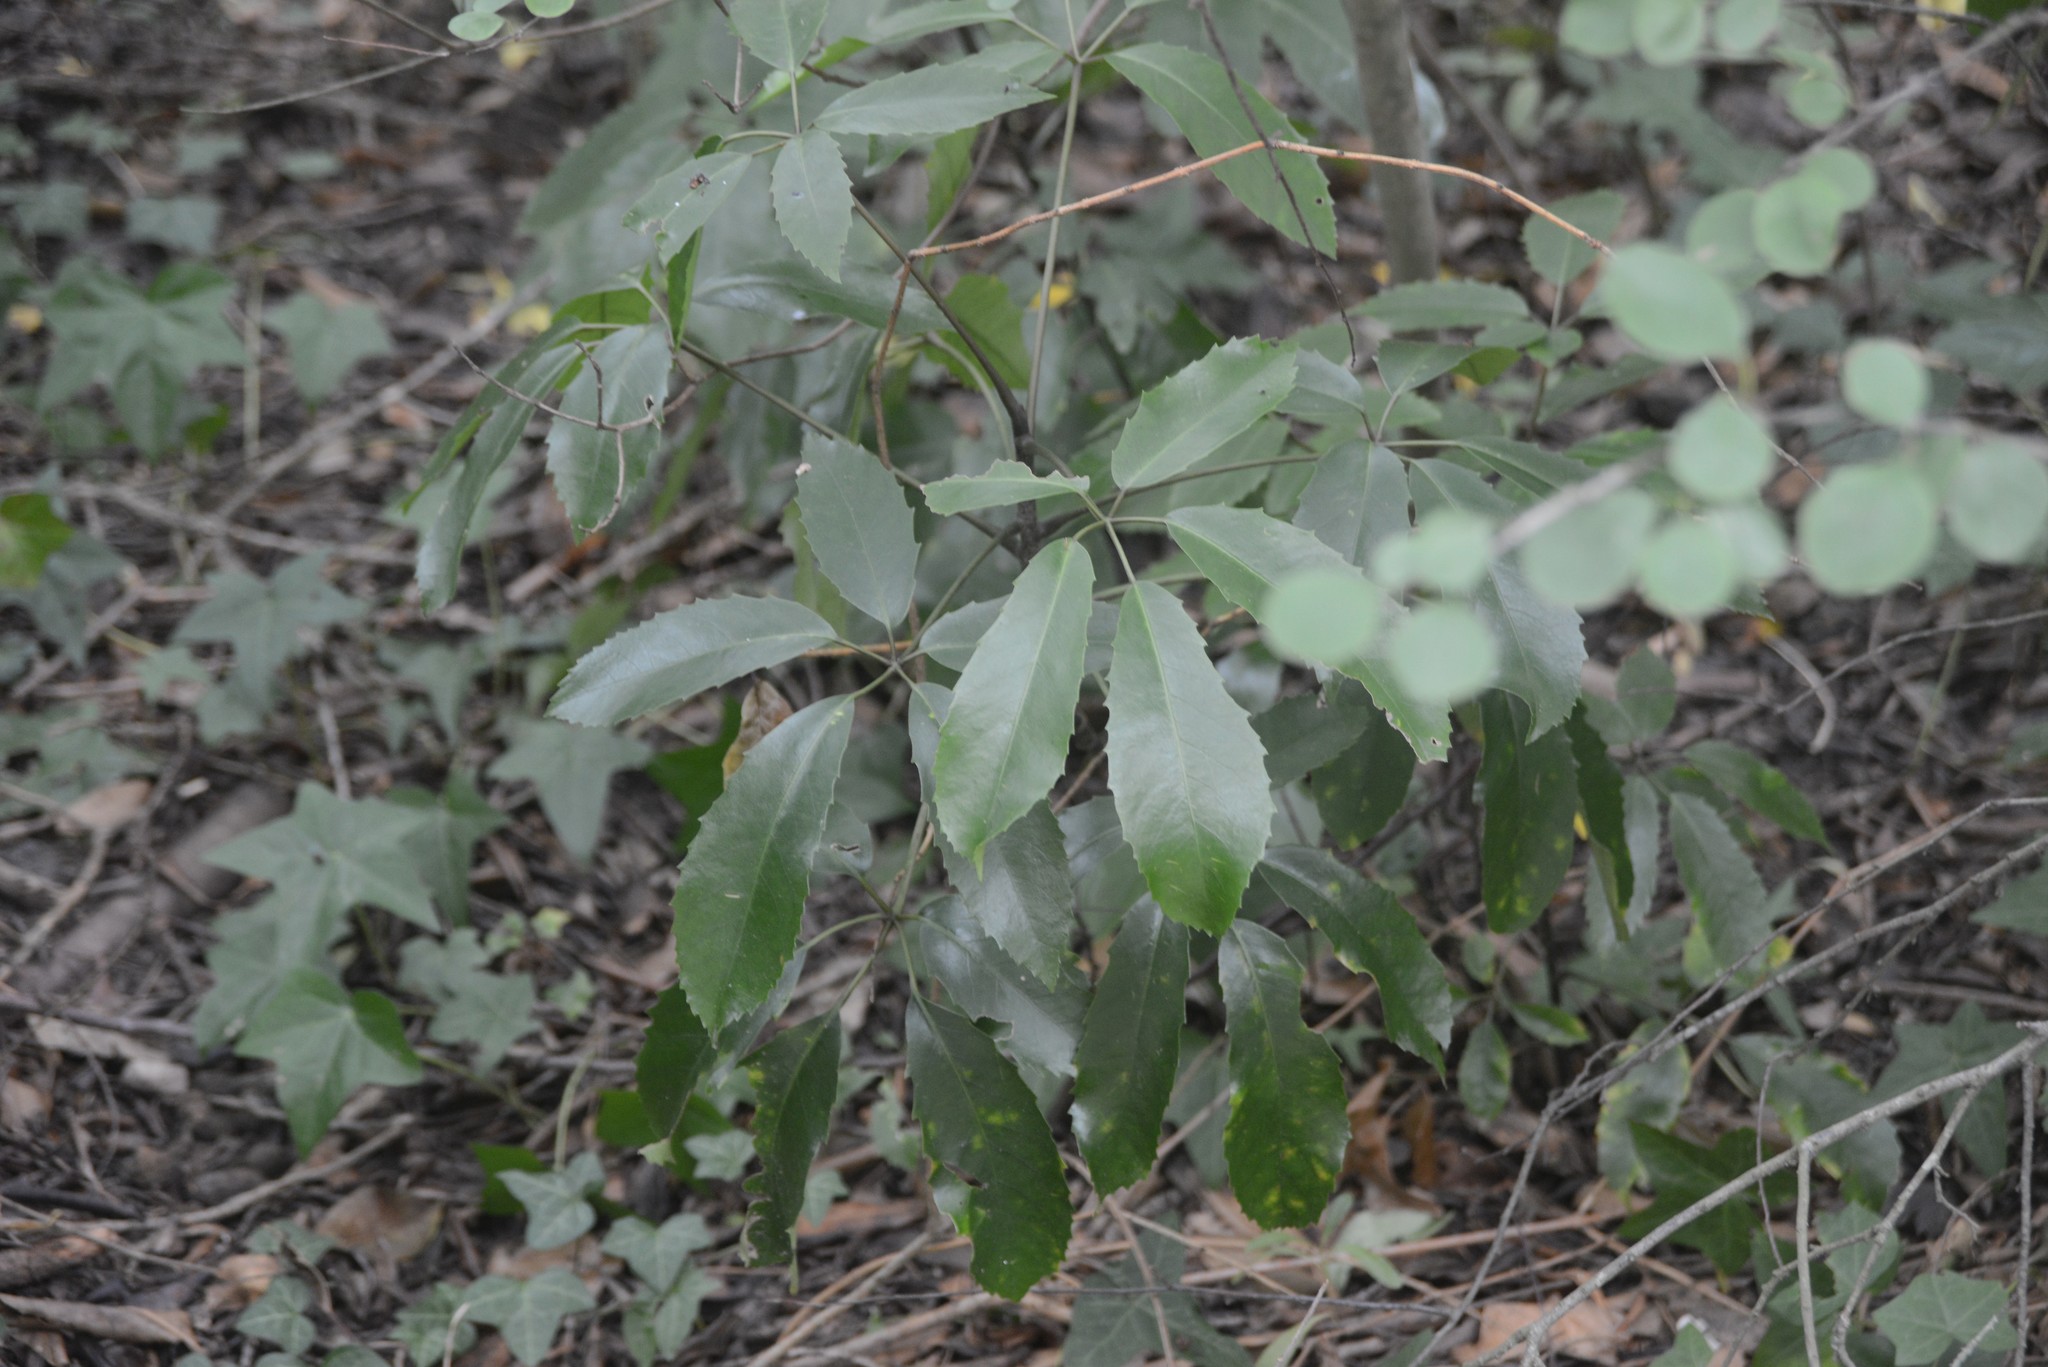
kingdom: Plantae
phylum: Tracheophyta
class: Magnoliopsida
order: Apiales
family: Araliaceae
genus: Neopanax
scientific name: Neopanax arboreus
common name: Five-fingers
